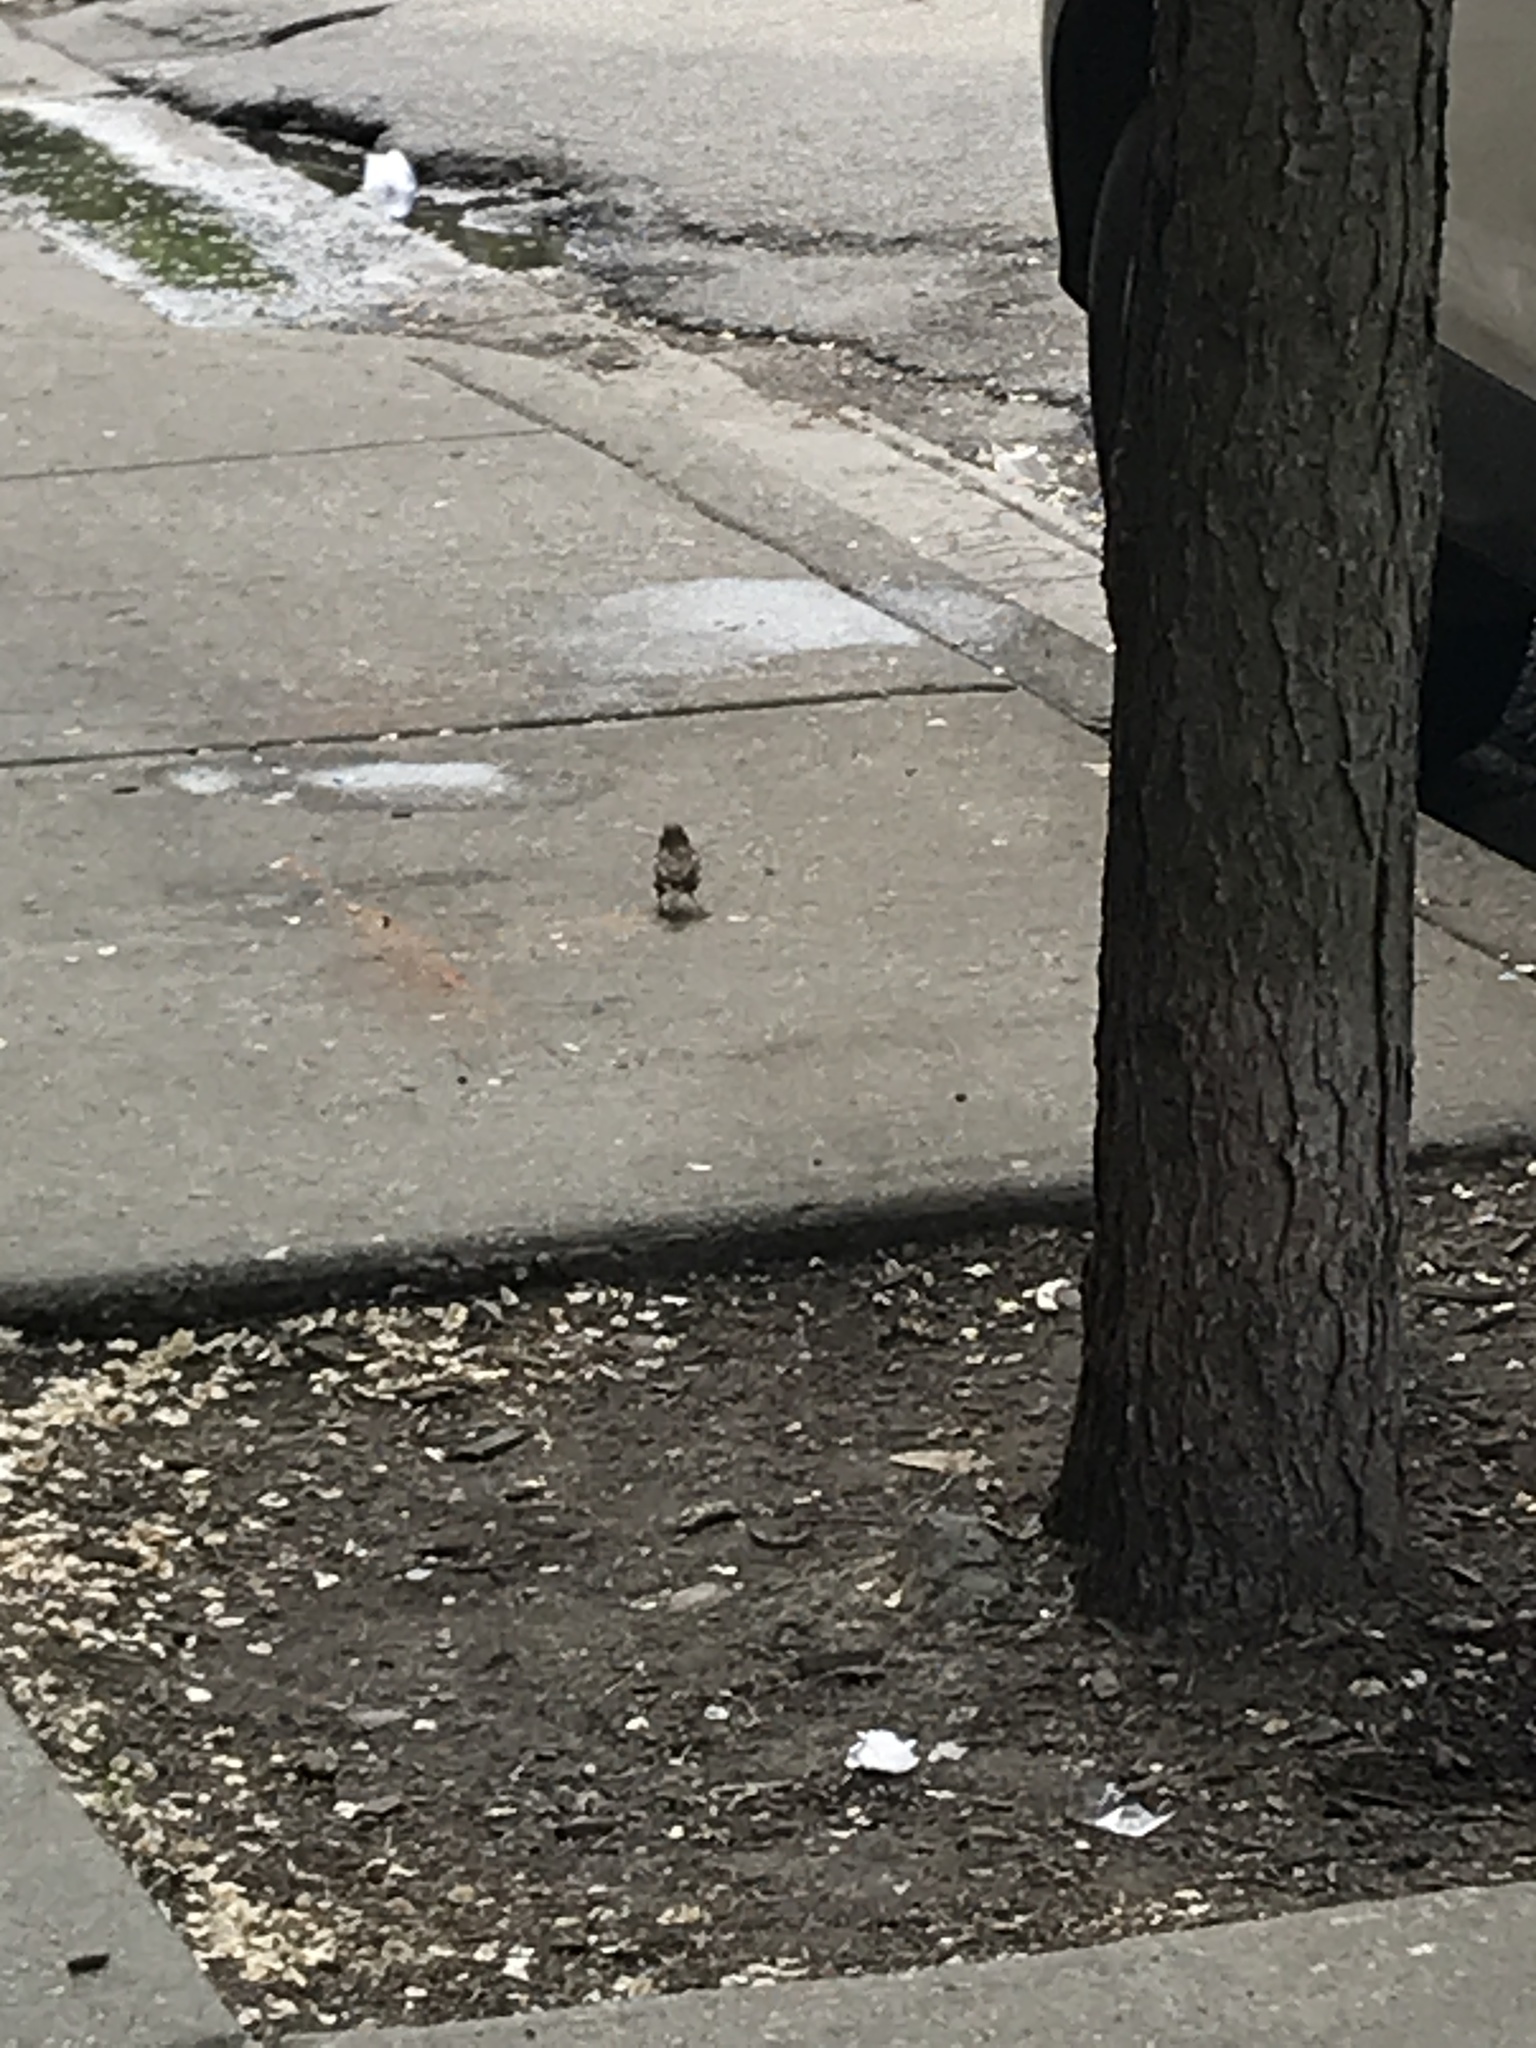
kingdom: Animalia
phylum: Chordata
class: Aves
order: Passeriformes
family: Passeridae
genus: Passer
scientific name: Passer domesticus
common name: House sparrow
